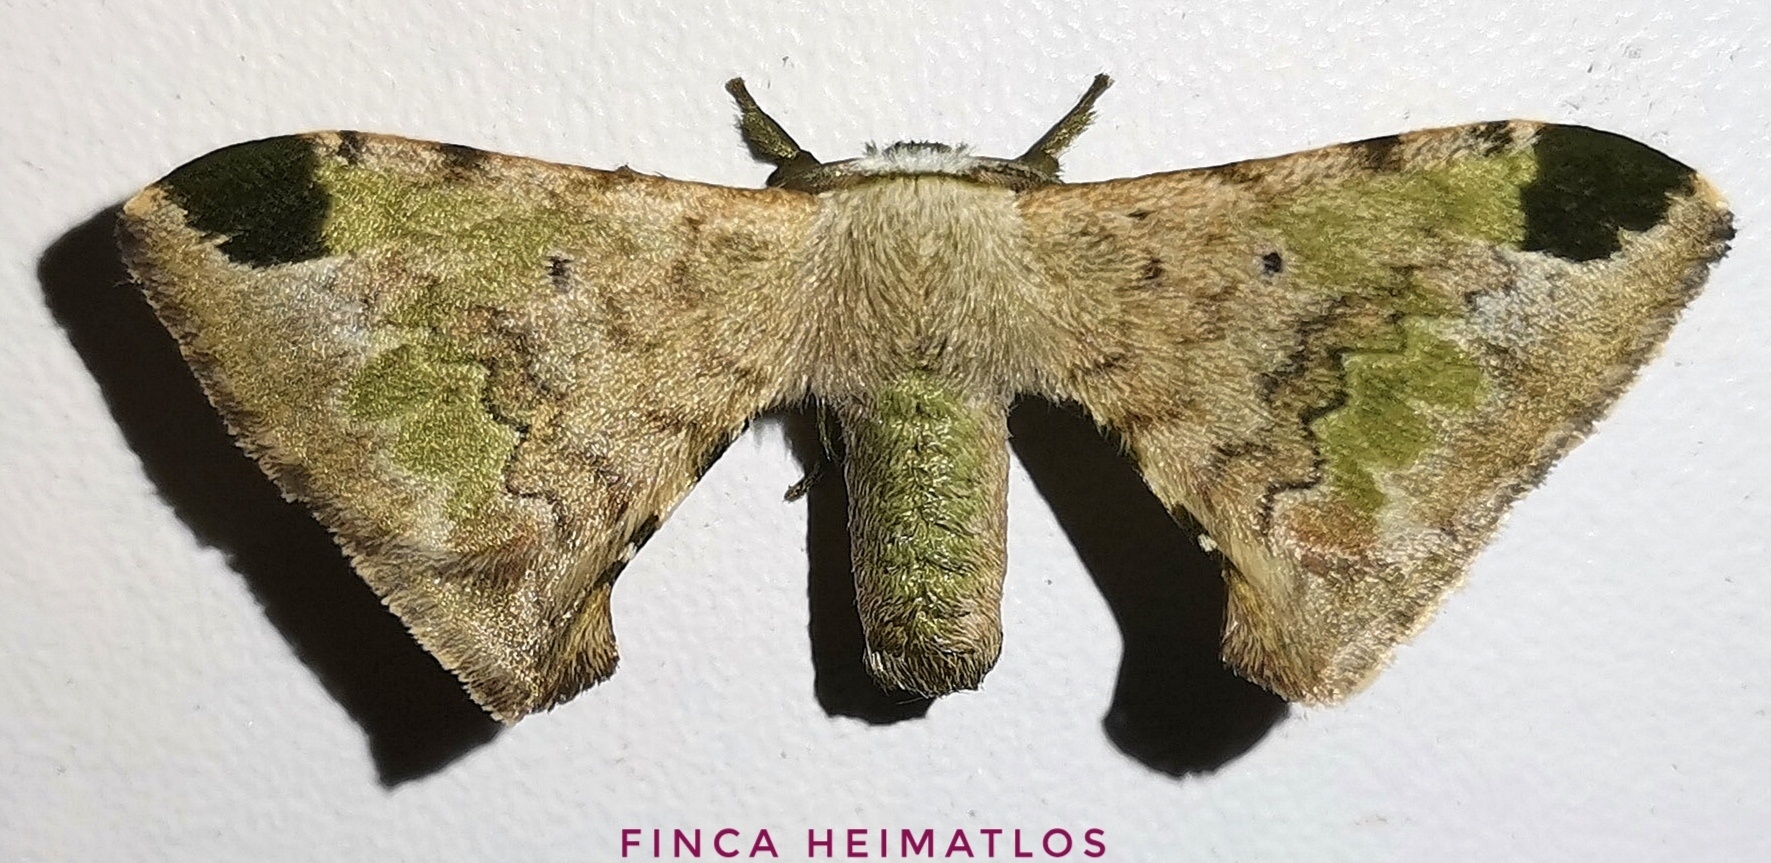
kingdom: Animalia
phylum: Arthropoda
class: Insecta
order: Lepidoptera
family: Bombycidae
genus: Anticla
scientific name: Anticla antica
